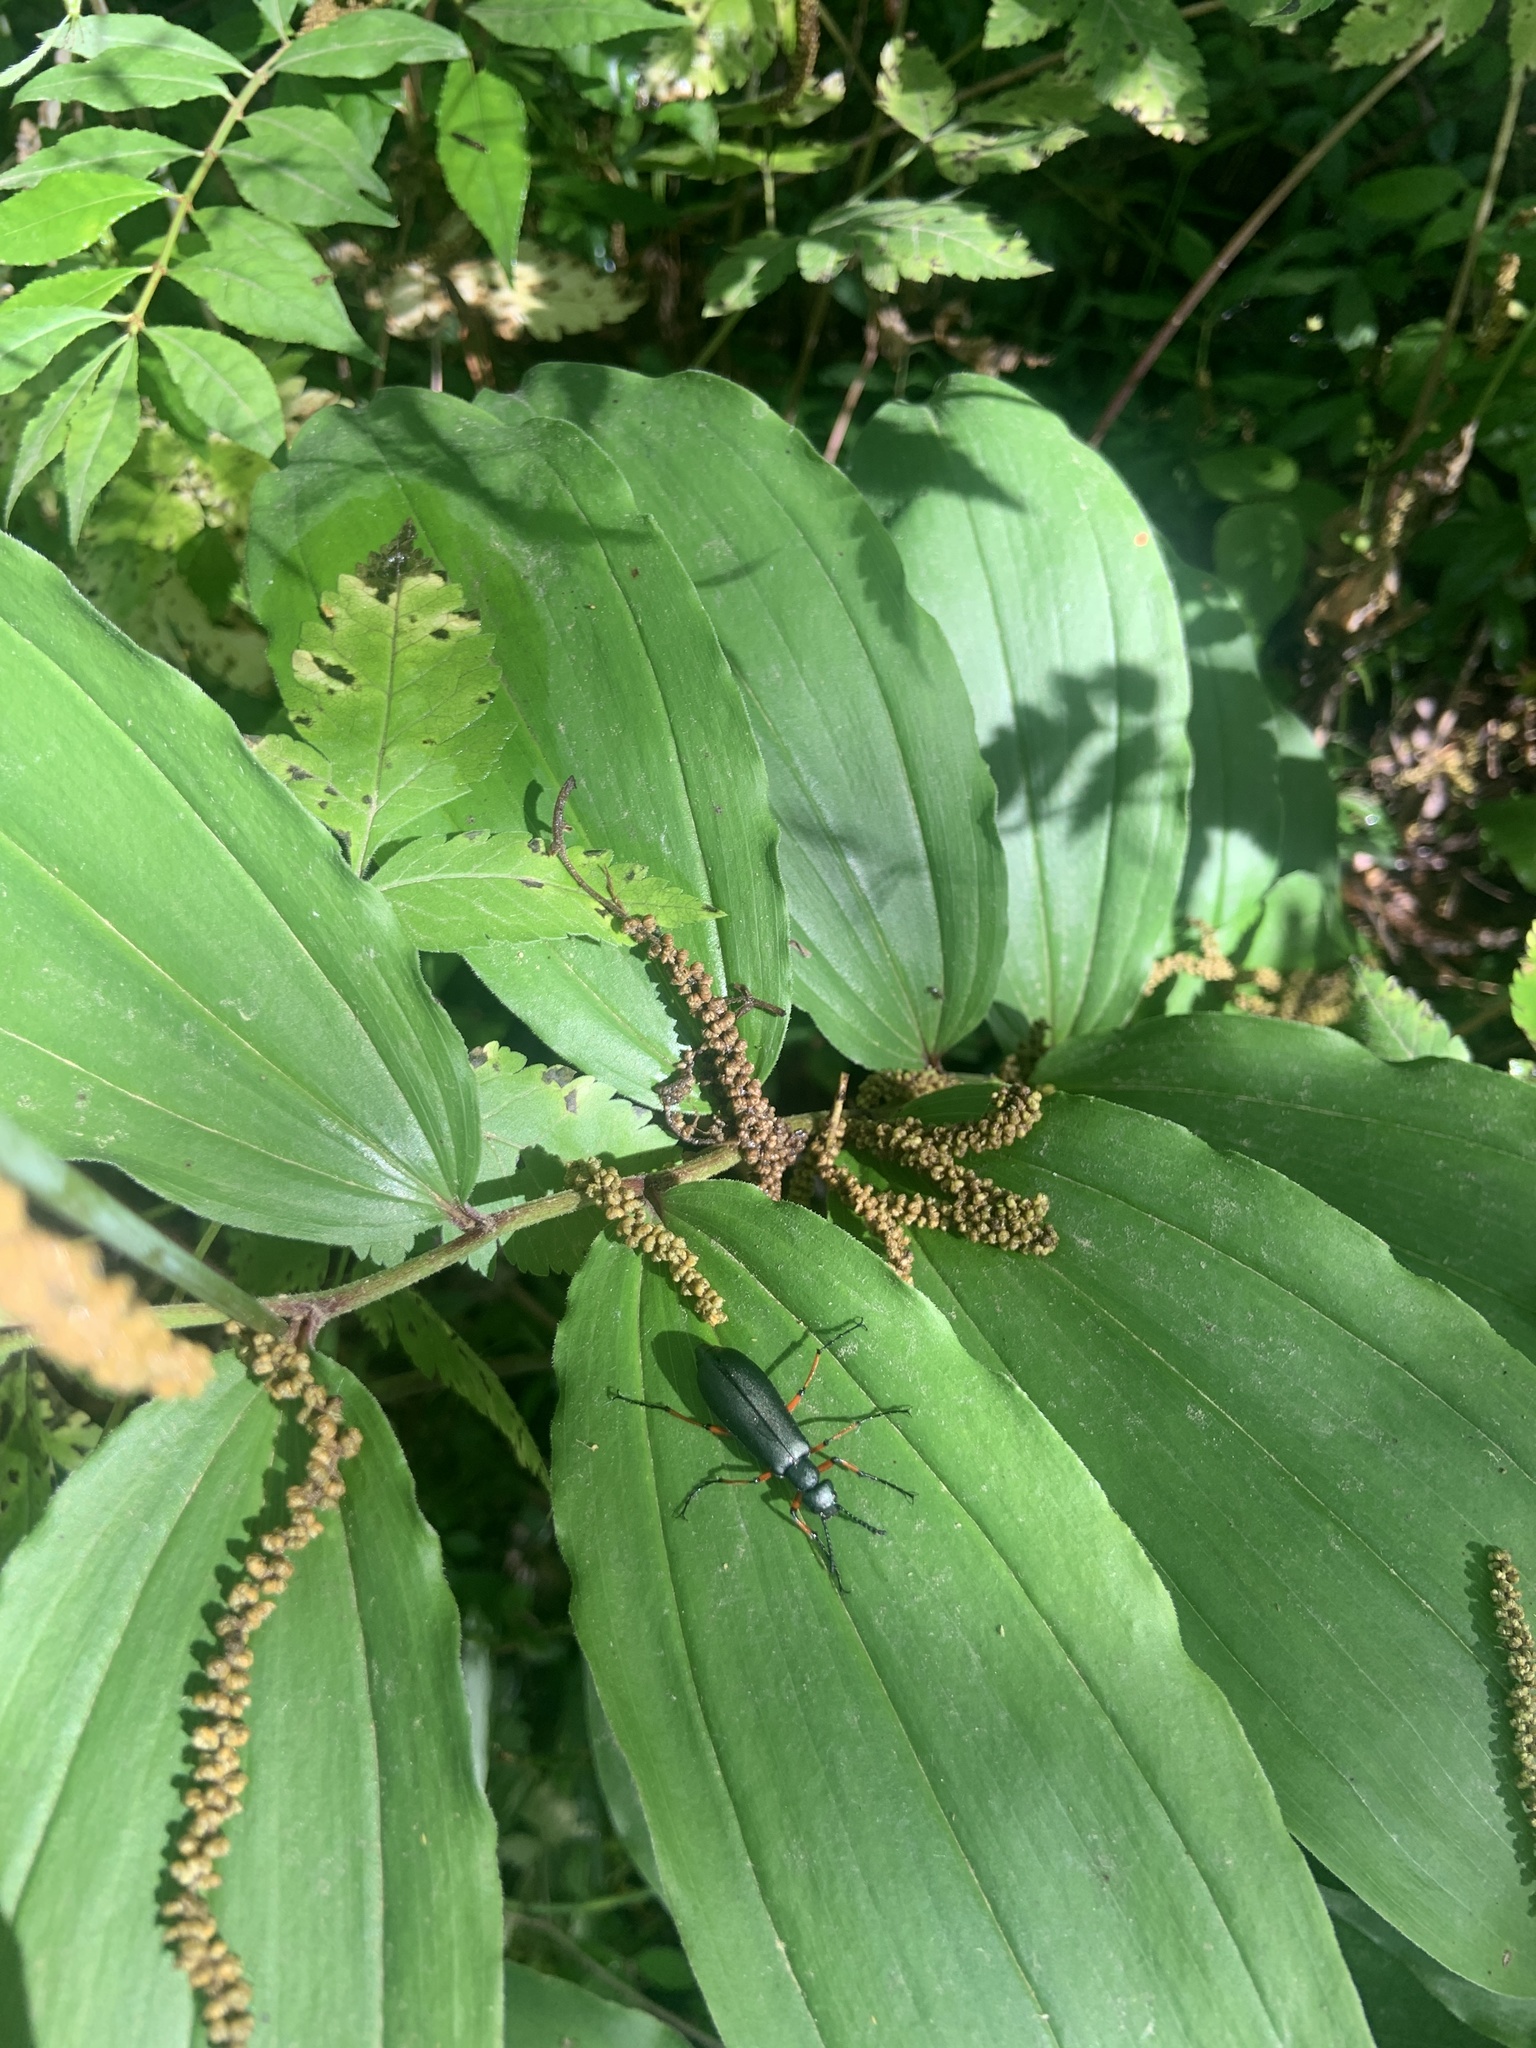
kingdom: Animalia
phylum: Arthropoda
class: Insecta
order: Coleoptera
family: Meloidae
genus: Lytta
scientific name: Lytta sayi
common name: Say's blister beetle
